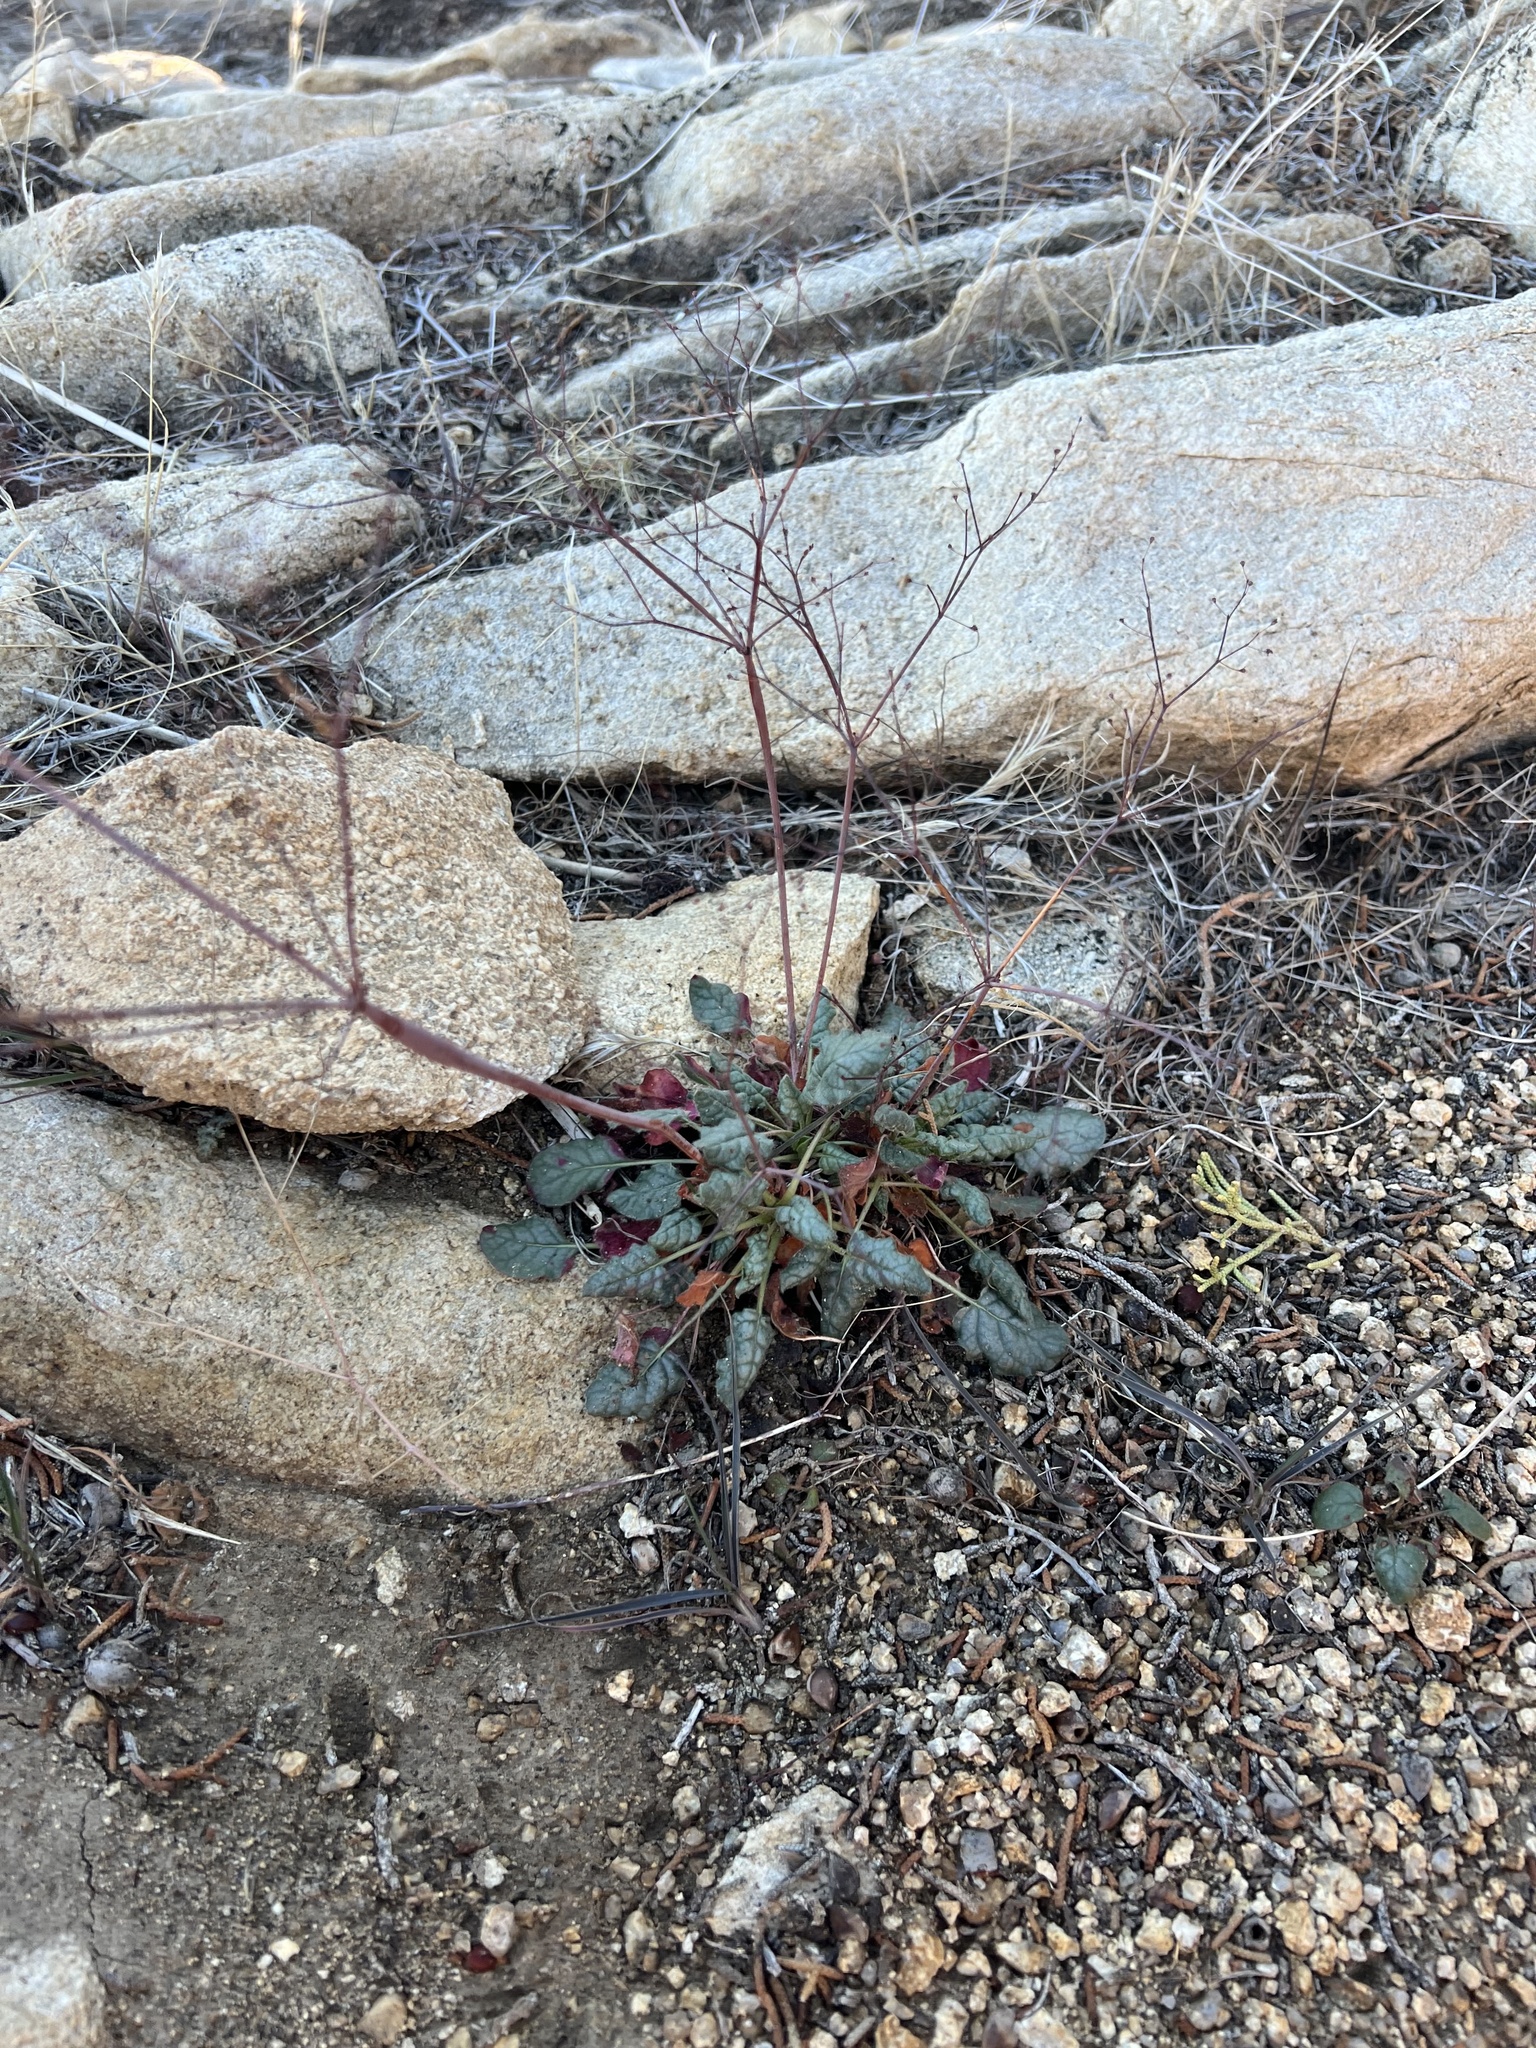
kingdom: Plantae
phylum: Tracheophyta
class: Magnoliopsida
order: Caryophyllales
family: Polygonaceae
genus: Eriogonum
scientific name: Eriogonum inflatum
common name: Desert trumpet
